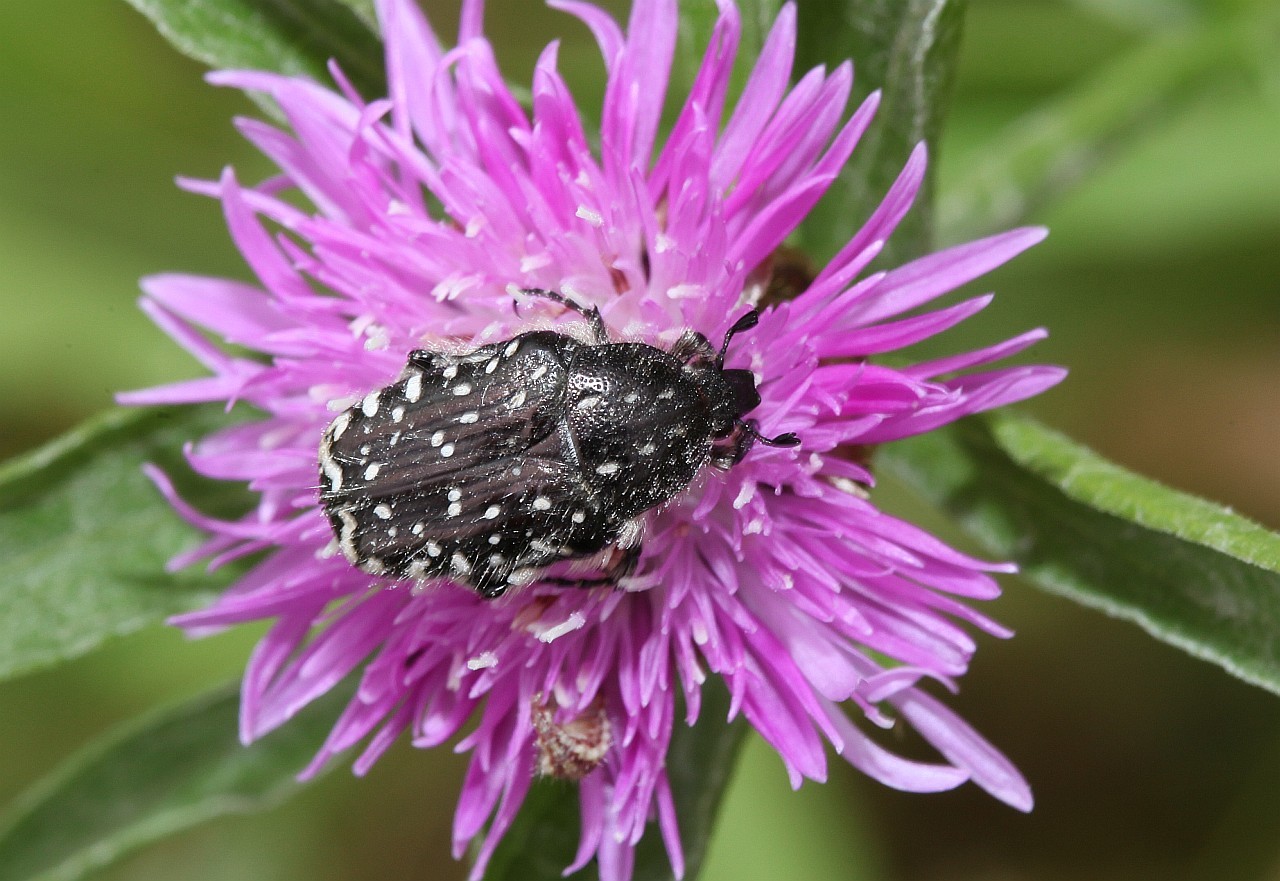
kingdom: Animalia
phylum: Arthropoda
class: Insecta
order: Coleoptera
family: Scarabaeidae
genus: Oxythyrea
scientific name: Oxythyrea funesta
